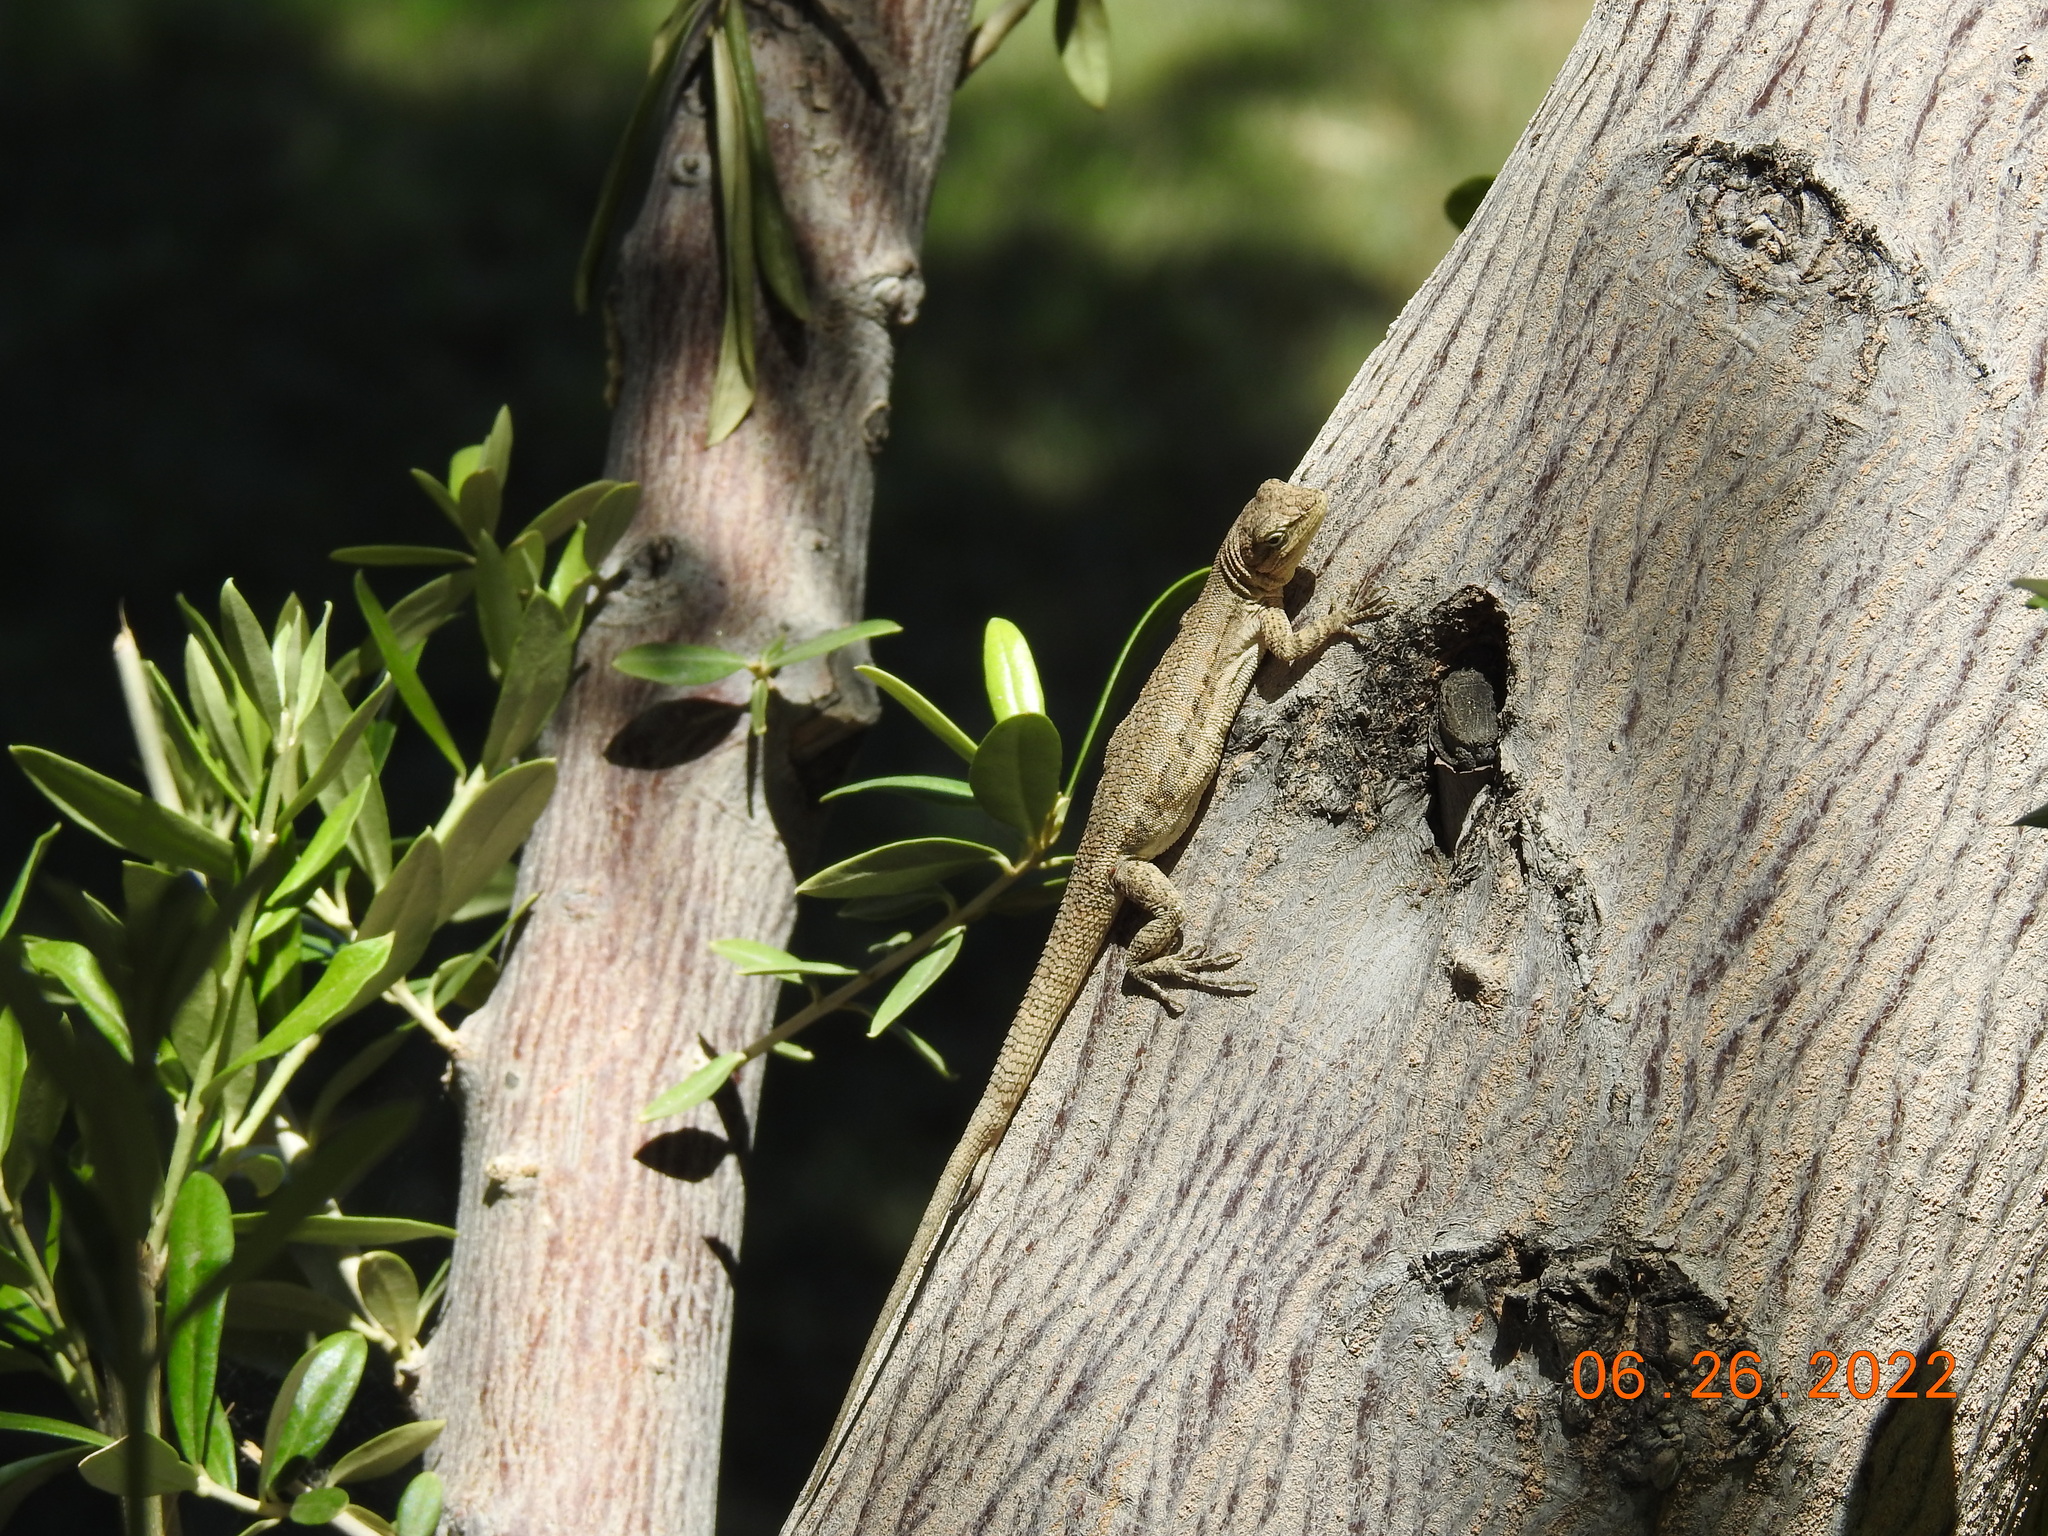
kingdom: Animalia
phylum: Chordata
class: Squamata
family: Phrynosomatidae
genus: Urosaurus
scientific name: Urosaurus graciosus
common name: Long-tailed brush lizard
